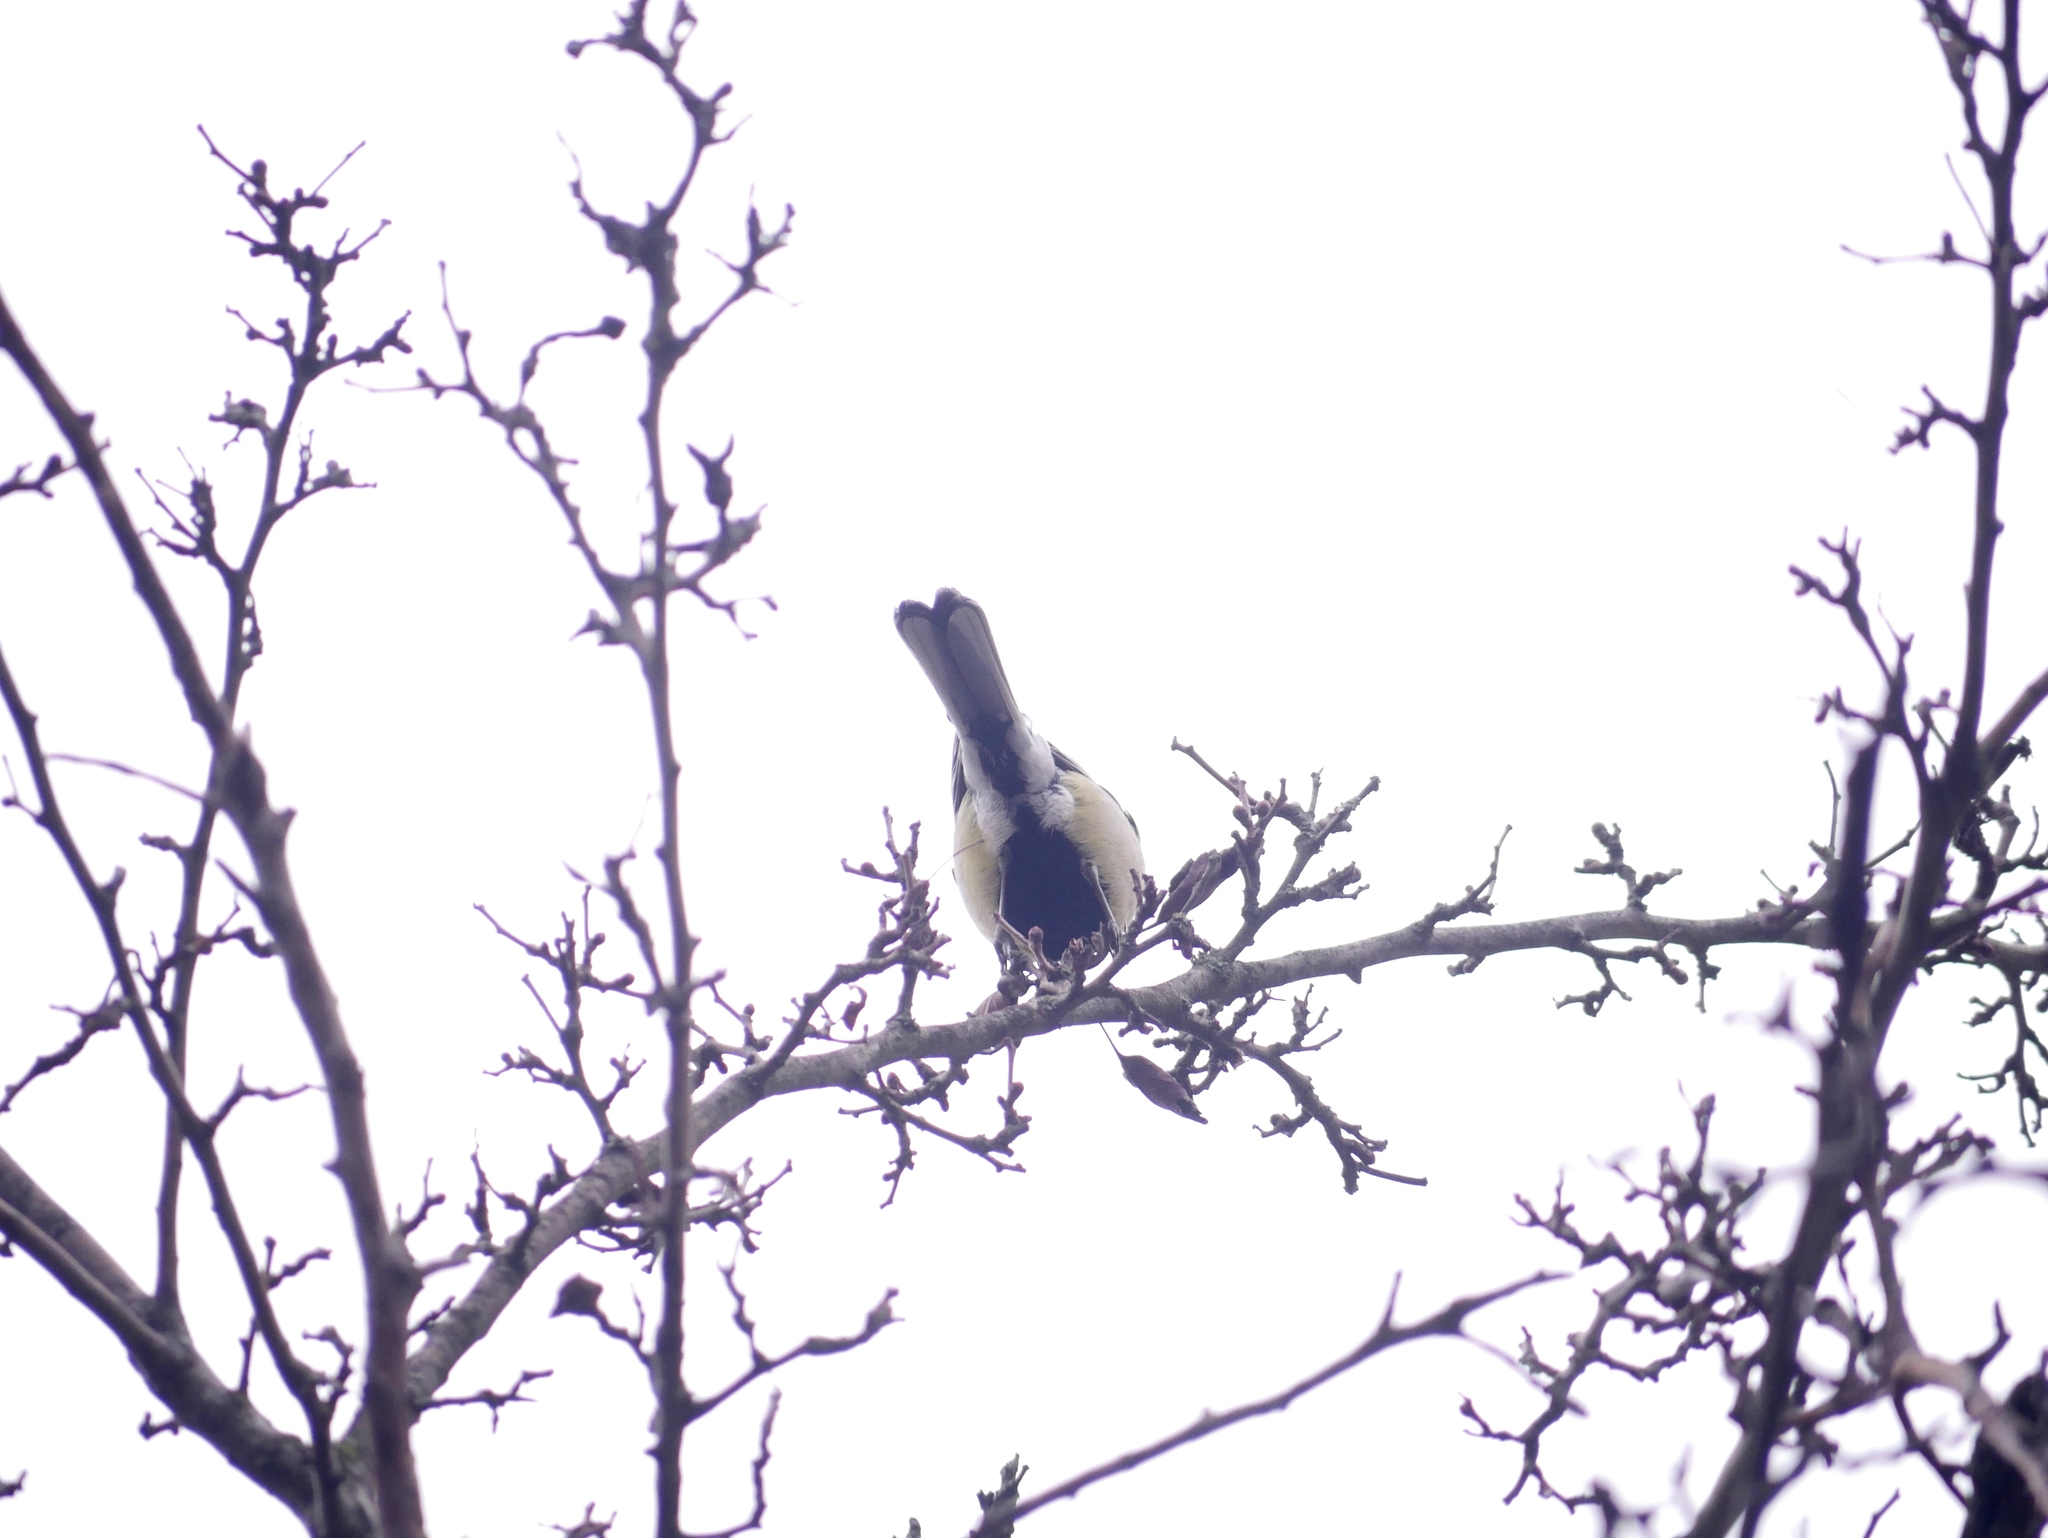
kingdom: Animalia
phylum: Chordata
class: Aves
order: Passeriformes
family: Paridae
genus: Parus
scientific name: Parus major
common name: Great tit
